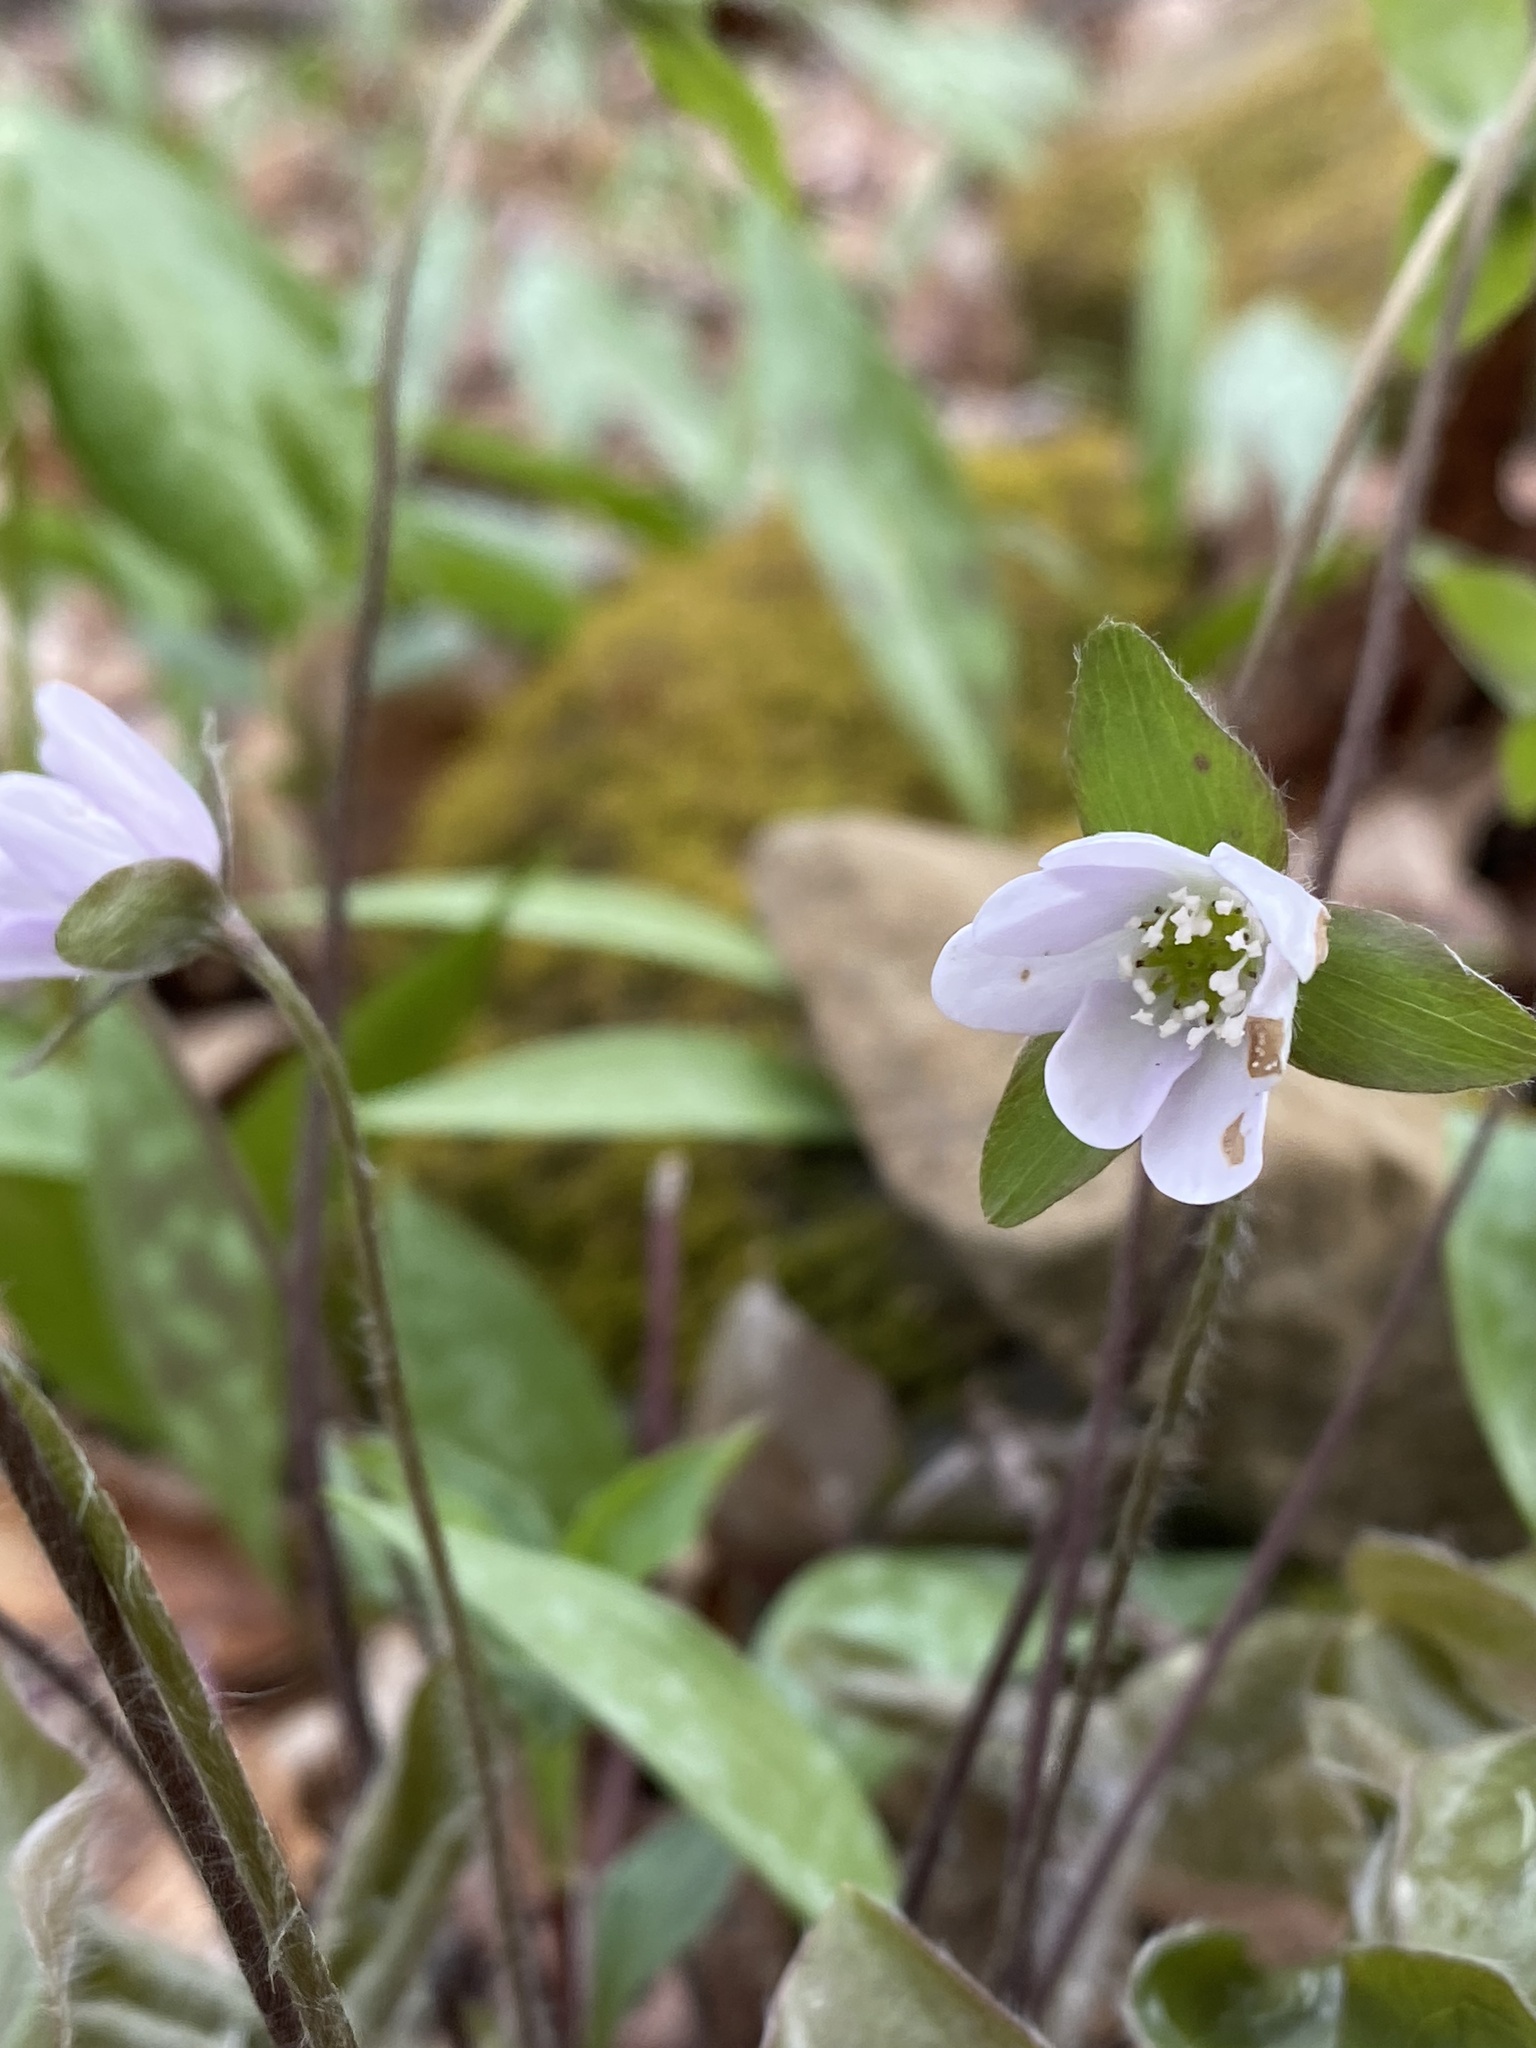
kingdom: Plantae
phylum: Tracheophyta
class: Magnoliopsida
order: Ranunculales
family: Ranunculaceae
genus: Hepatica
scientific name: Hepatica acutiloba
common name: Sharp-lobed hepatica
